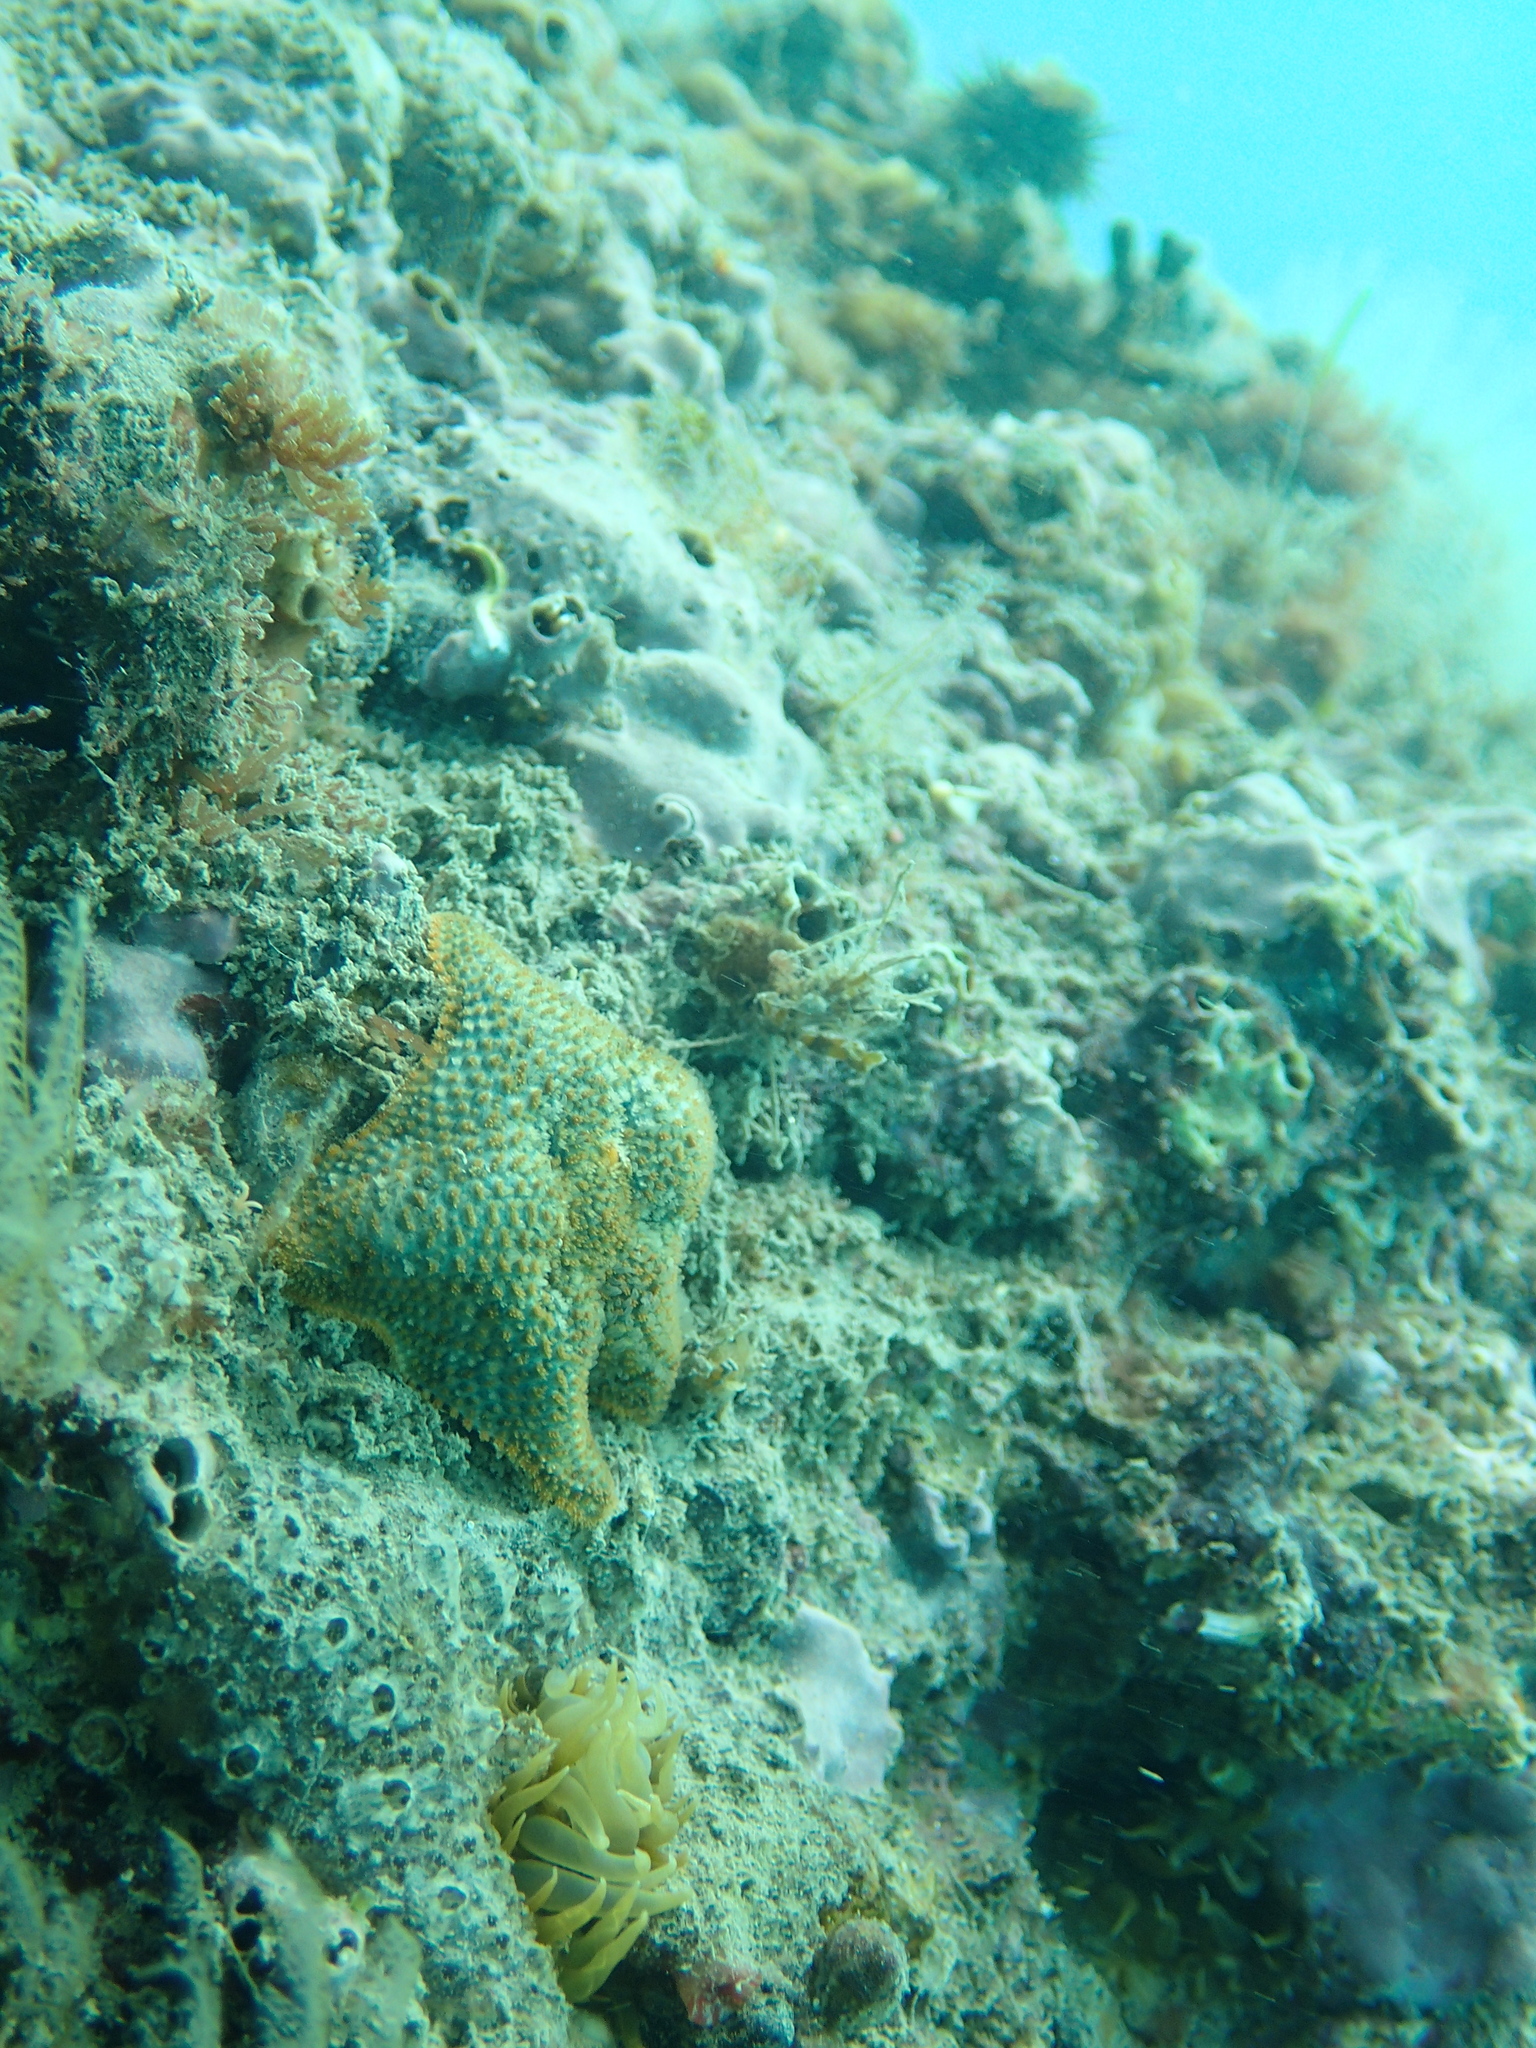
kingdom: Animalia
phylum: Echinodermata
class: Asteroidea
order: Valvatida
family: Asterinidae
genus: Asterina
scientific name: Asterina gibbosa
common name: Cushion star
